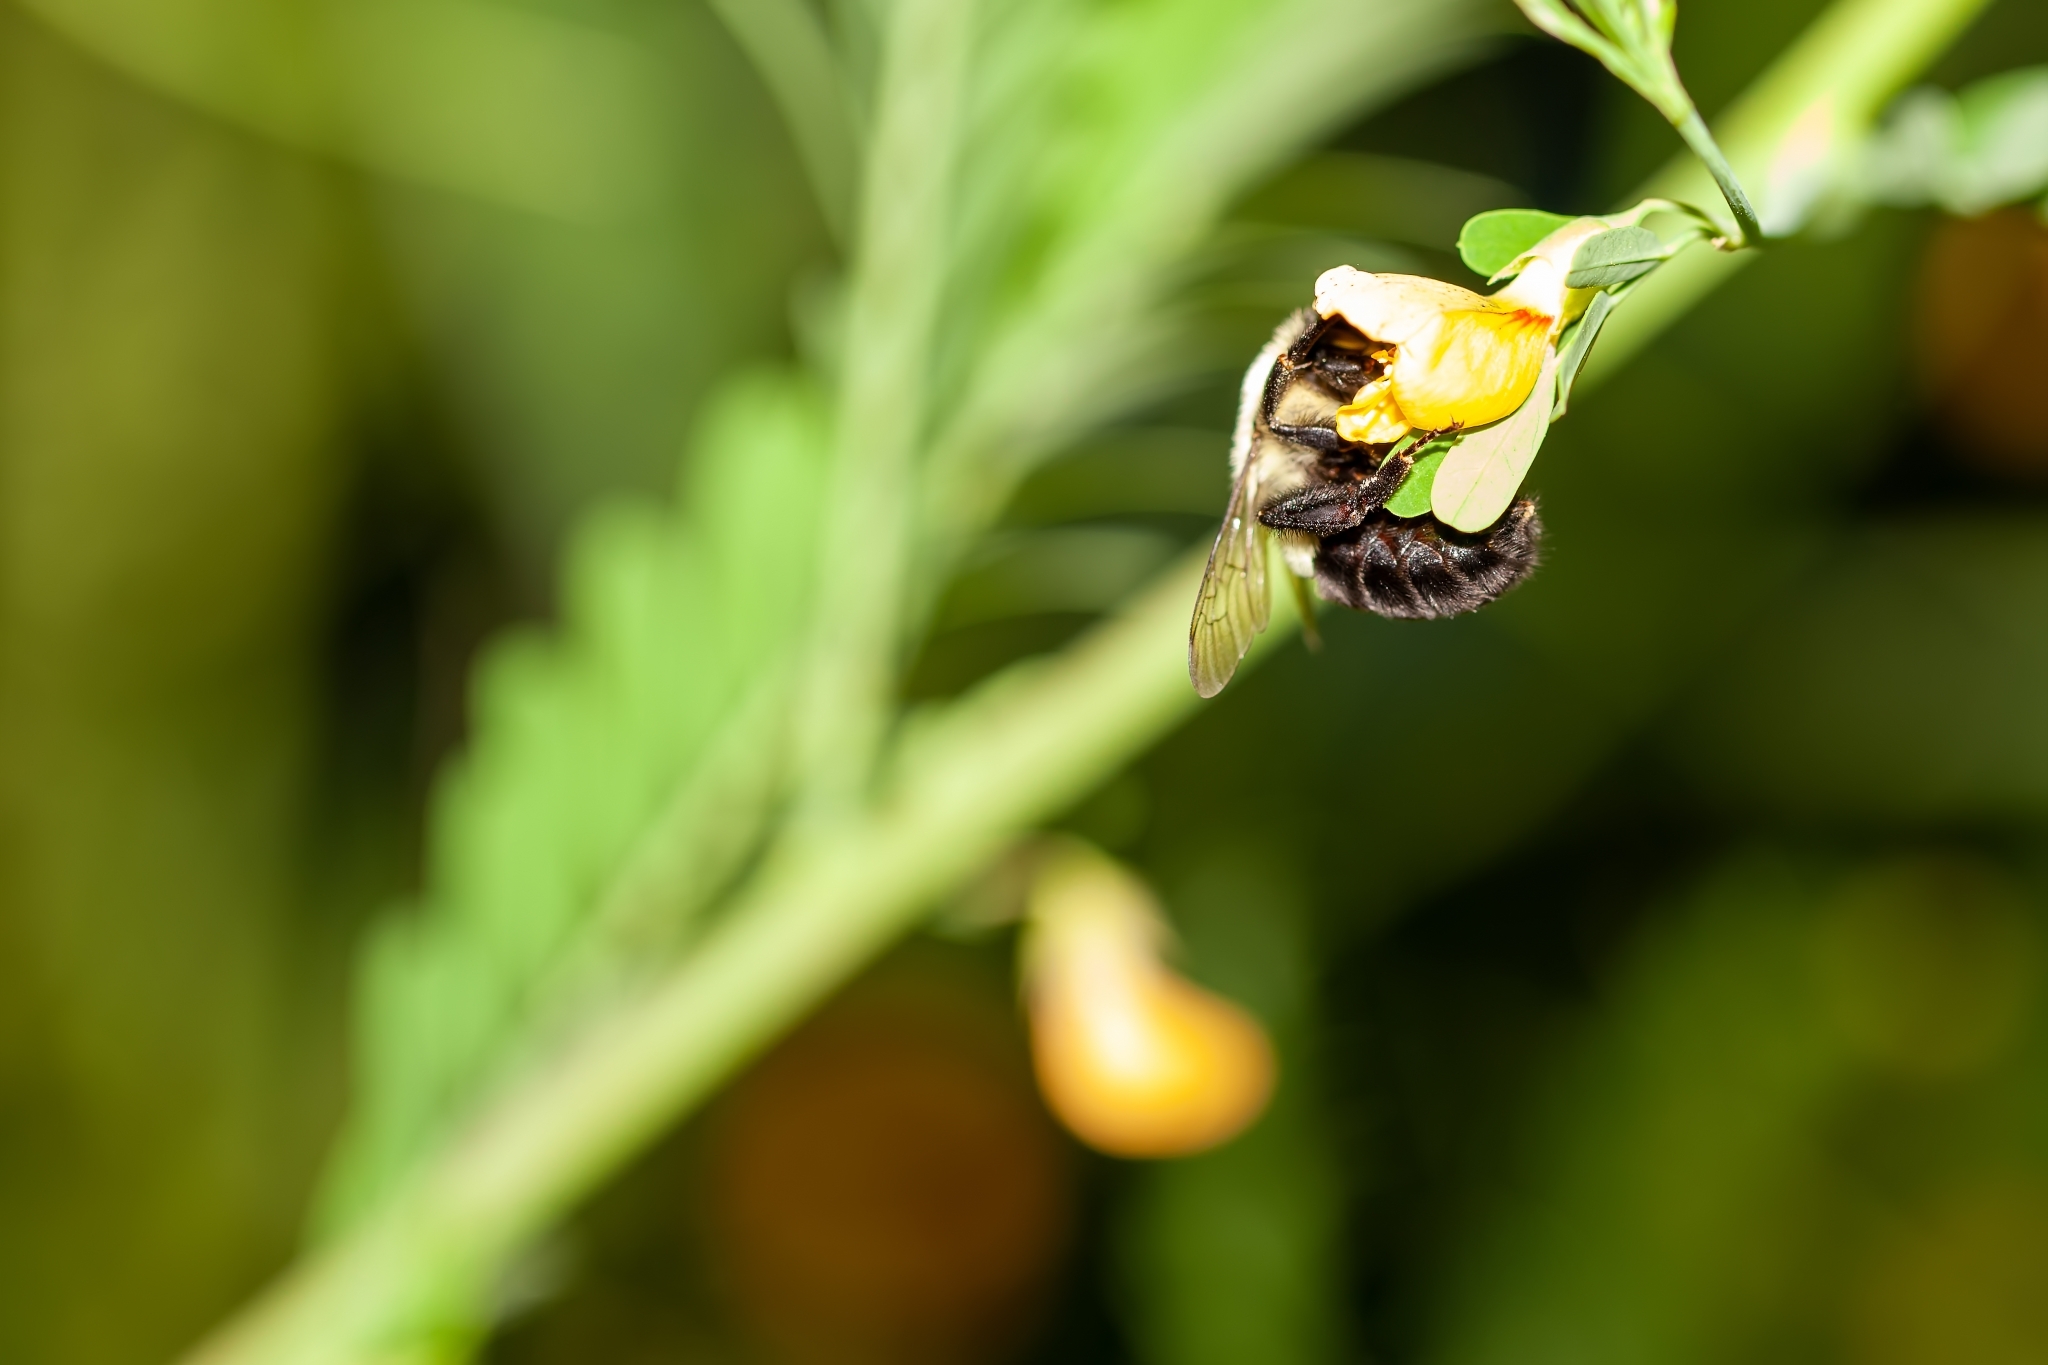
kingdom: Animalia
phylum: Arthropoda
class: Insecta
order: Hymenoptera
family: Apidae
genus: Bombus
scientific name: Bombus impatiens
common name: Common eastern bumble bee
